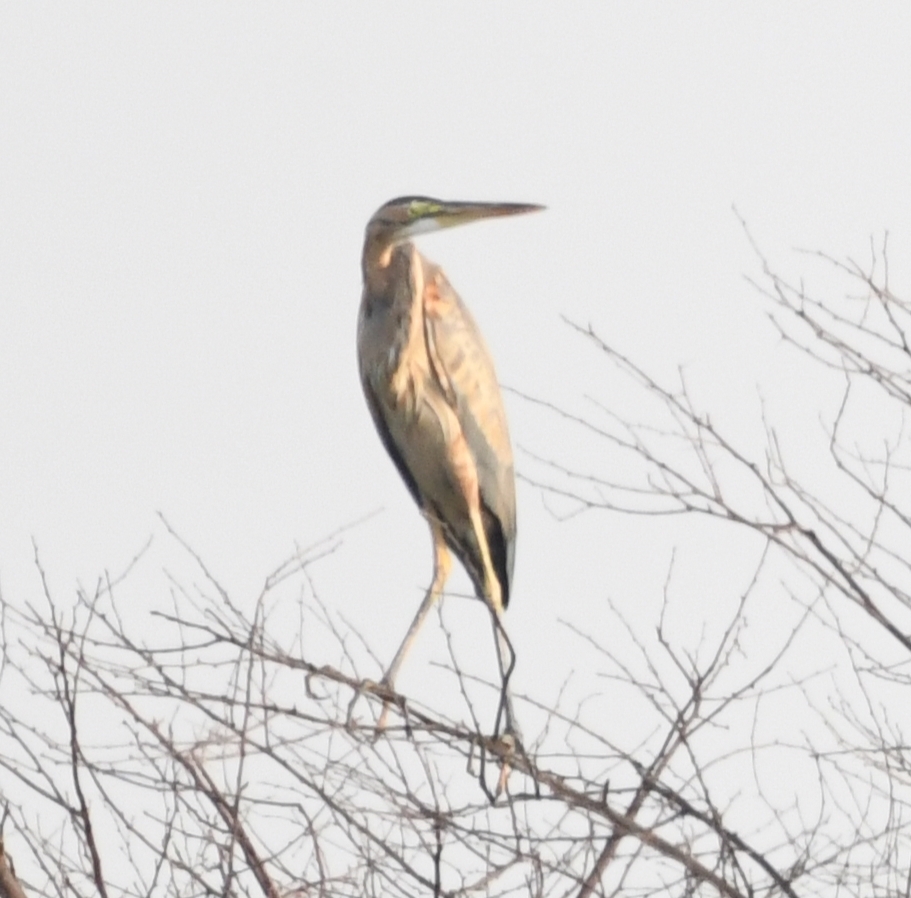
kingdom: Animalia
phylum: Chordata
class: Aves
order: Pelecaniformes
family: Ardeidae
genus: Ardea
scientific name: Ardea purpurea
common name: Purple heron
